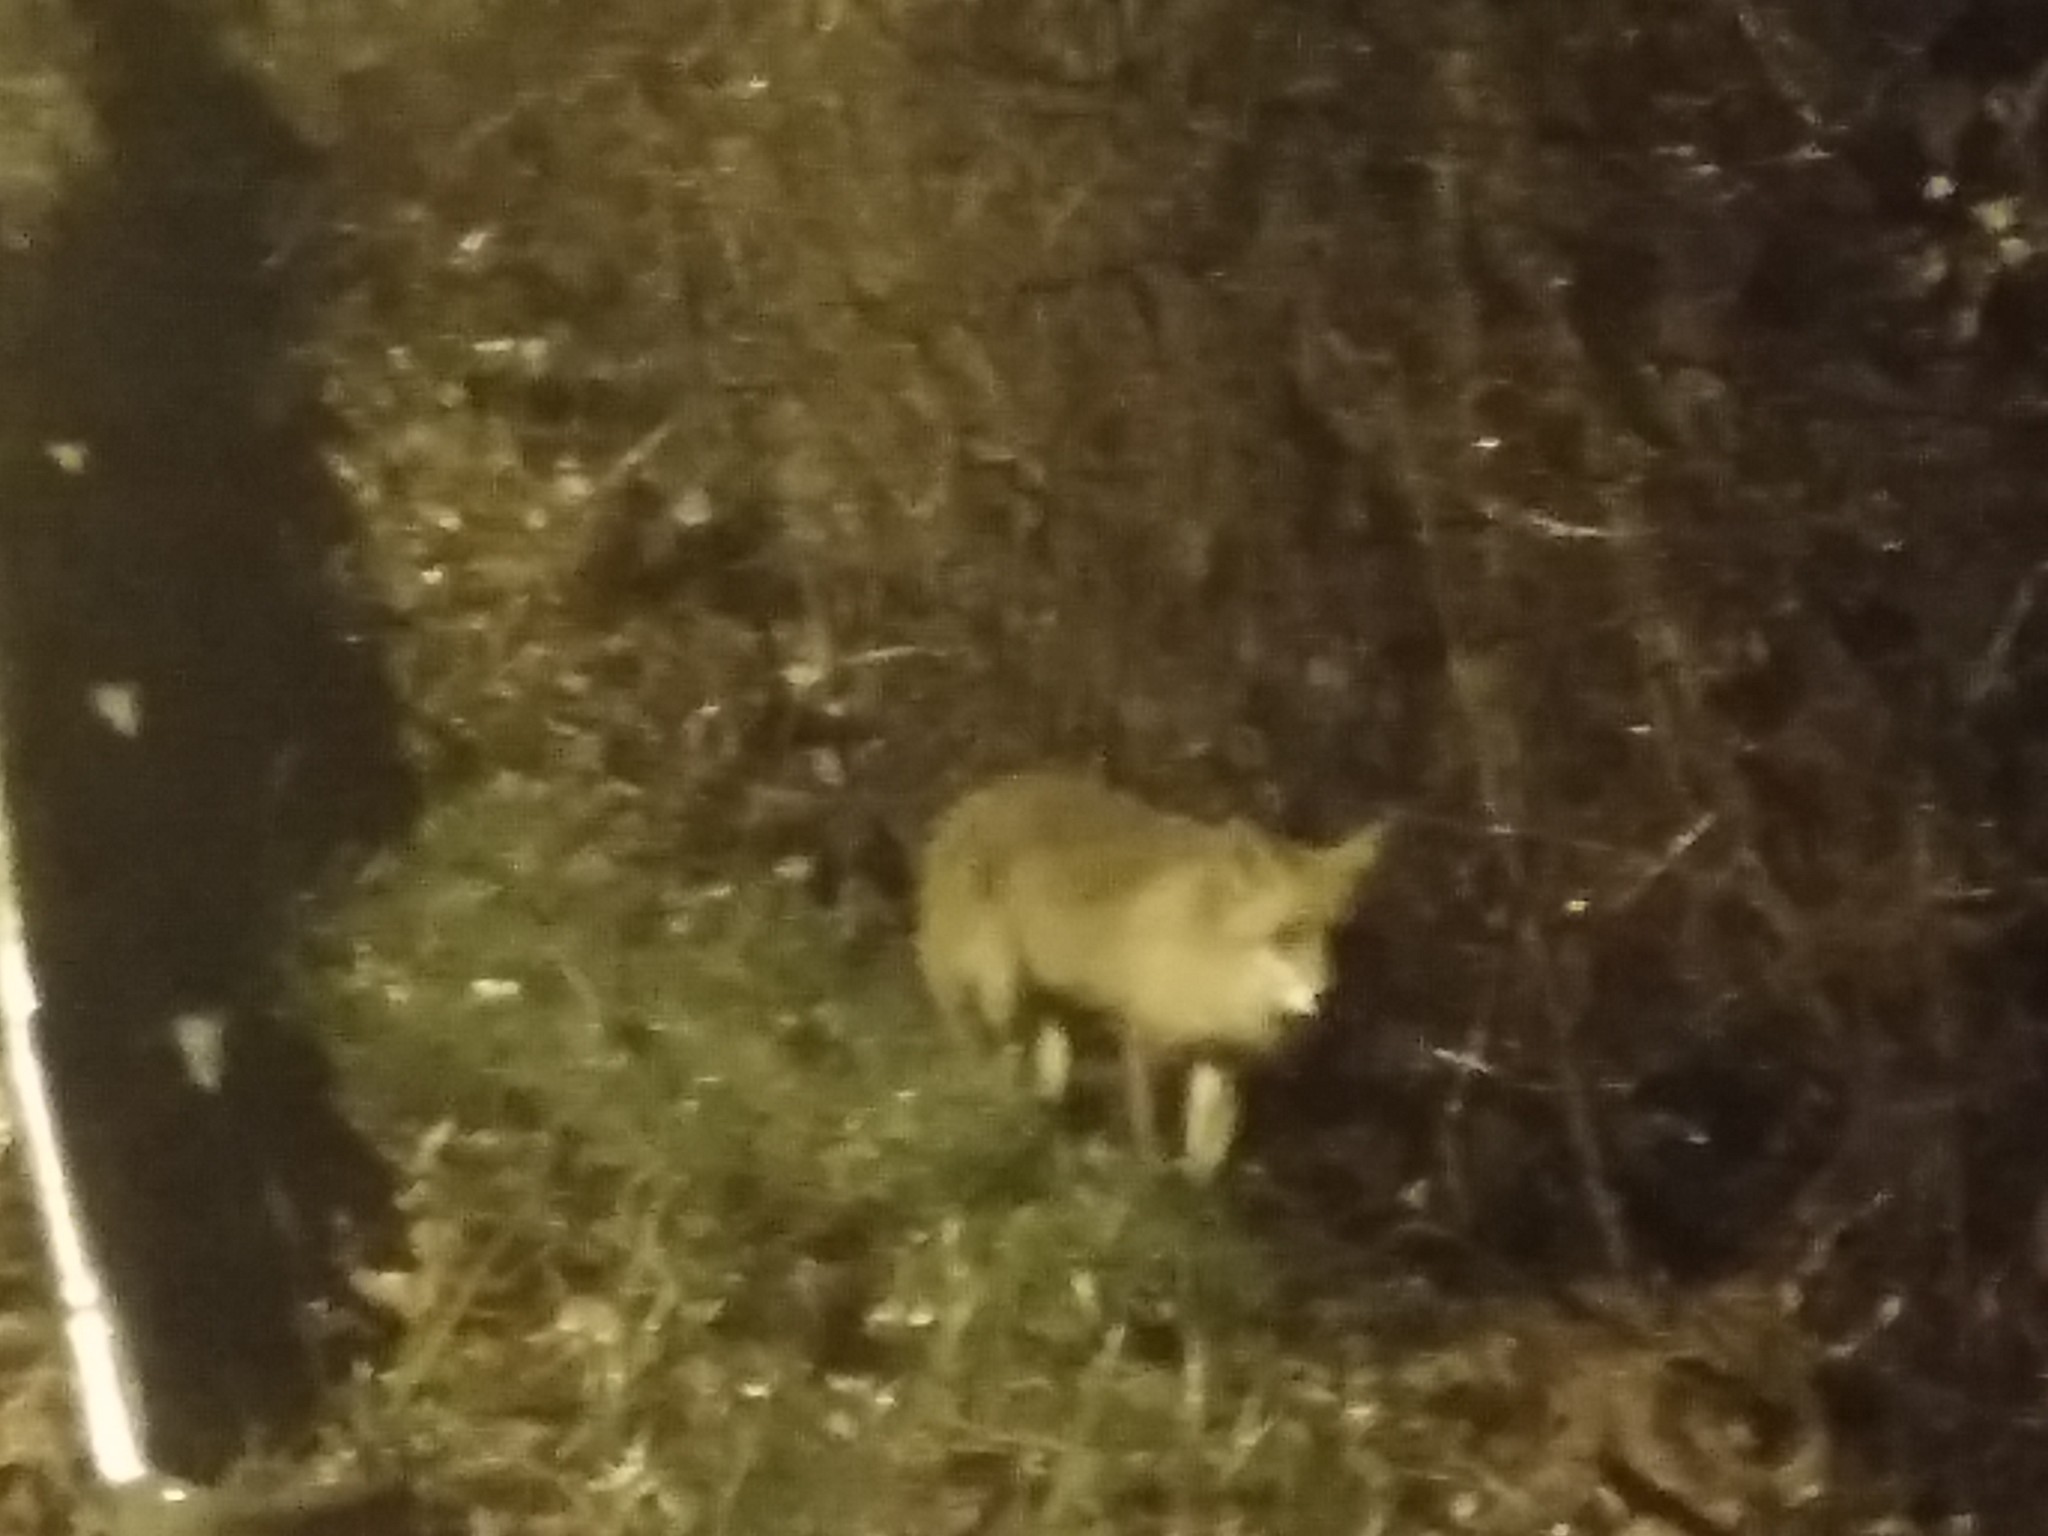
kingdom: Animalia
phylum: Chordata
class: Mammalia
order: Carnivora
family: Canidae
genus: Vulpes
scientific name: Vulpes vulpes
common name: Red fox
